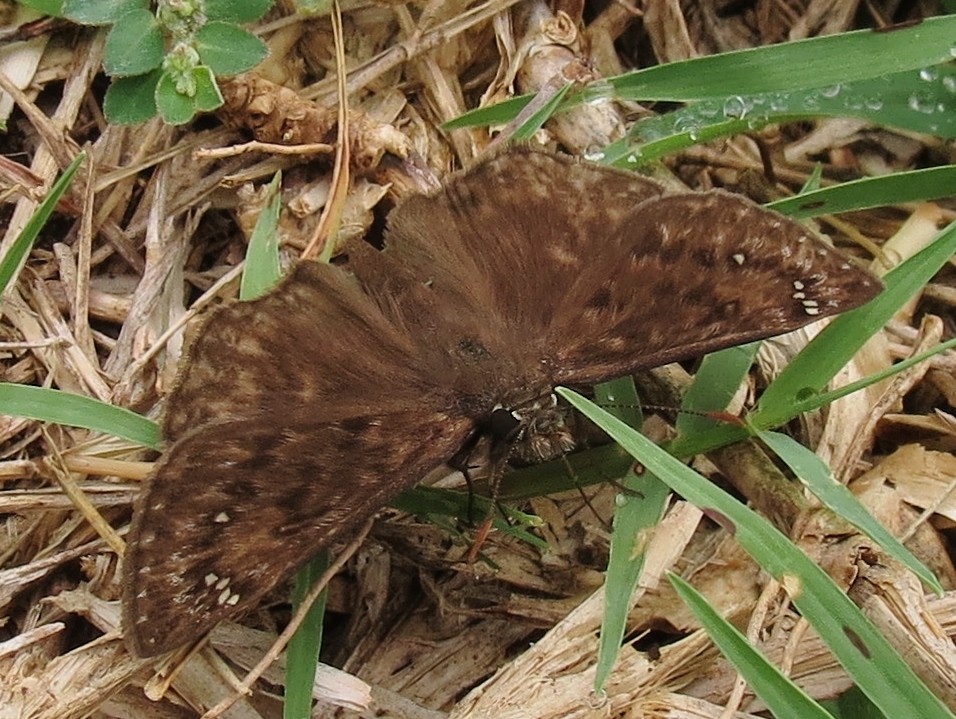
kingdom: Animalia
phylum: Arthropoda
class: Insecta
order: Lepidoptera
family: Hesperiidae
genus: Erynnis
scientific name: Erynnis horatius
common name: Horace's duskywing
